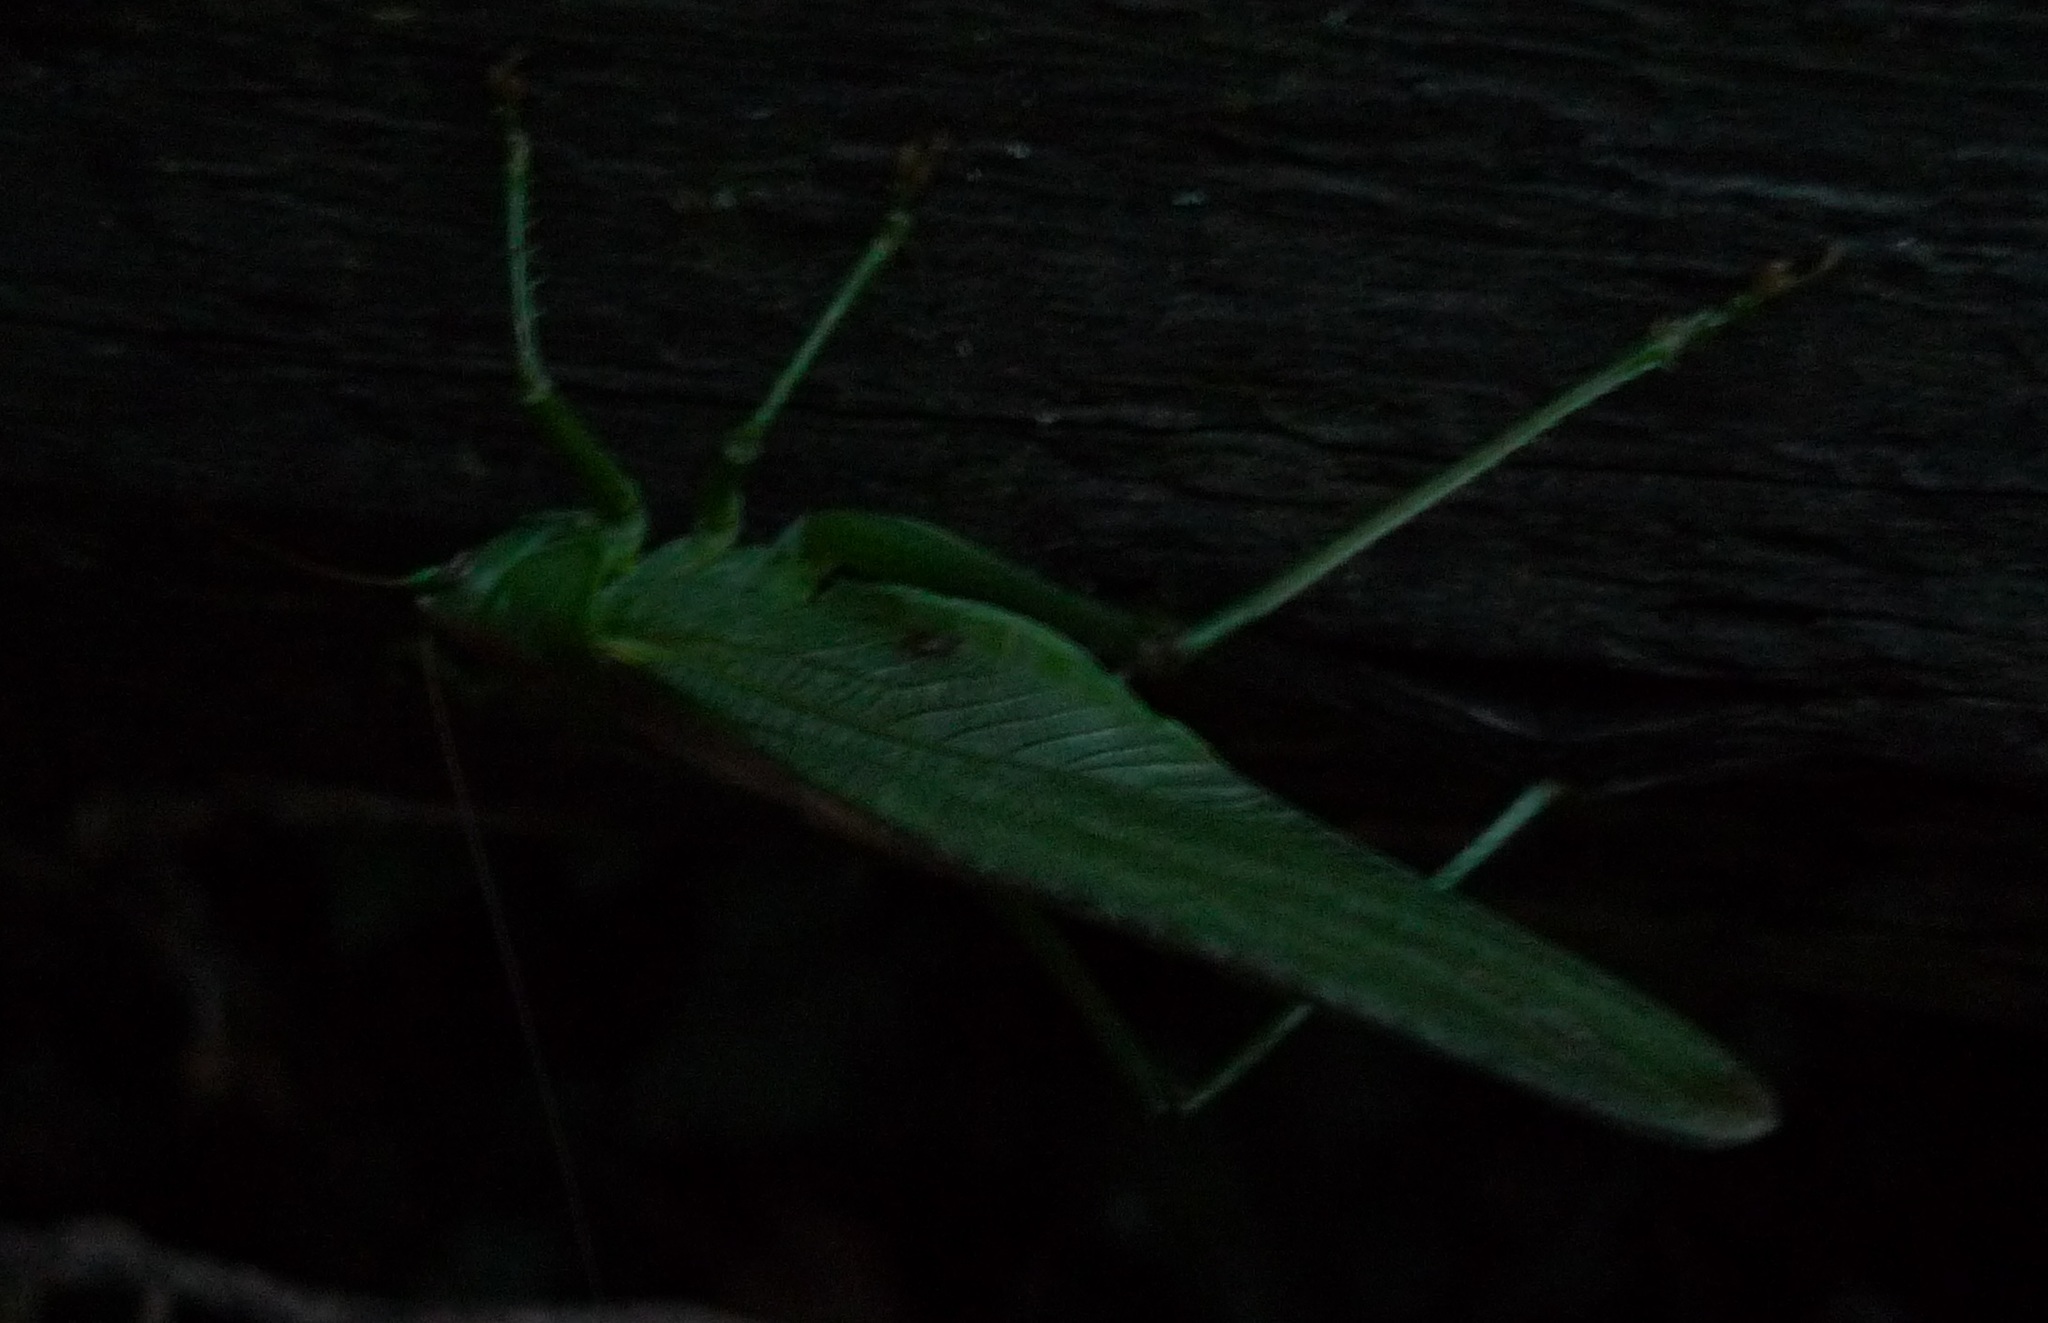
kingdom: Animalia
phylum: Arthropoda
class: Insecta
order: Orthoptera
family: Tettigoniidae
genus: Tettigonia
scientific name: Tettigonia viridissima
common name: Great green bush-cricket
